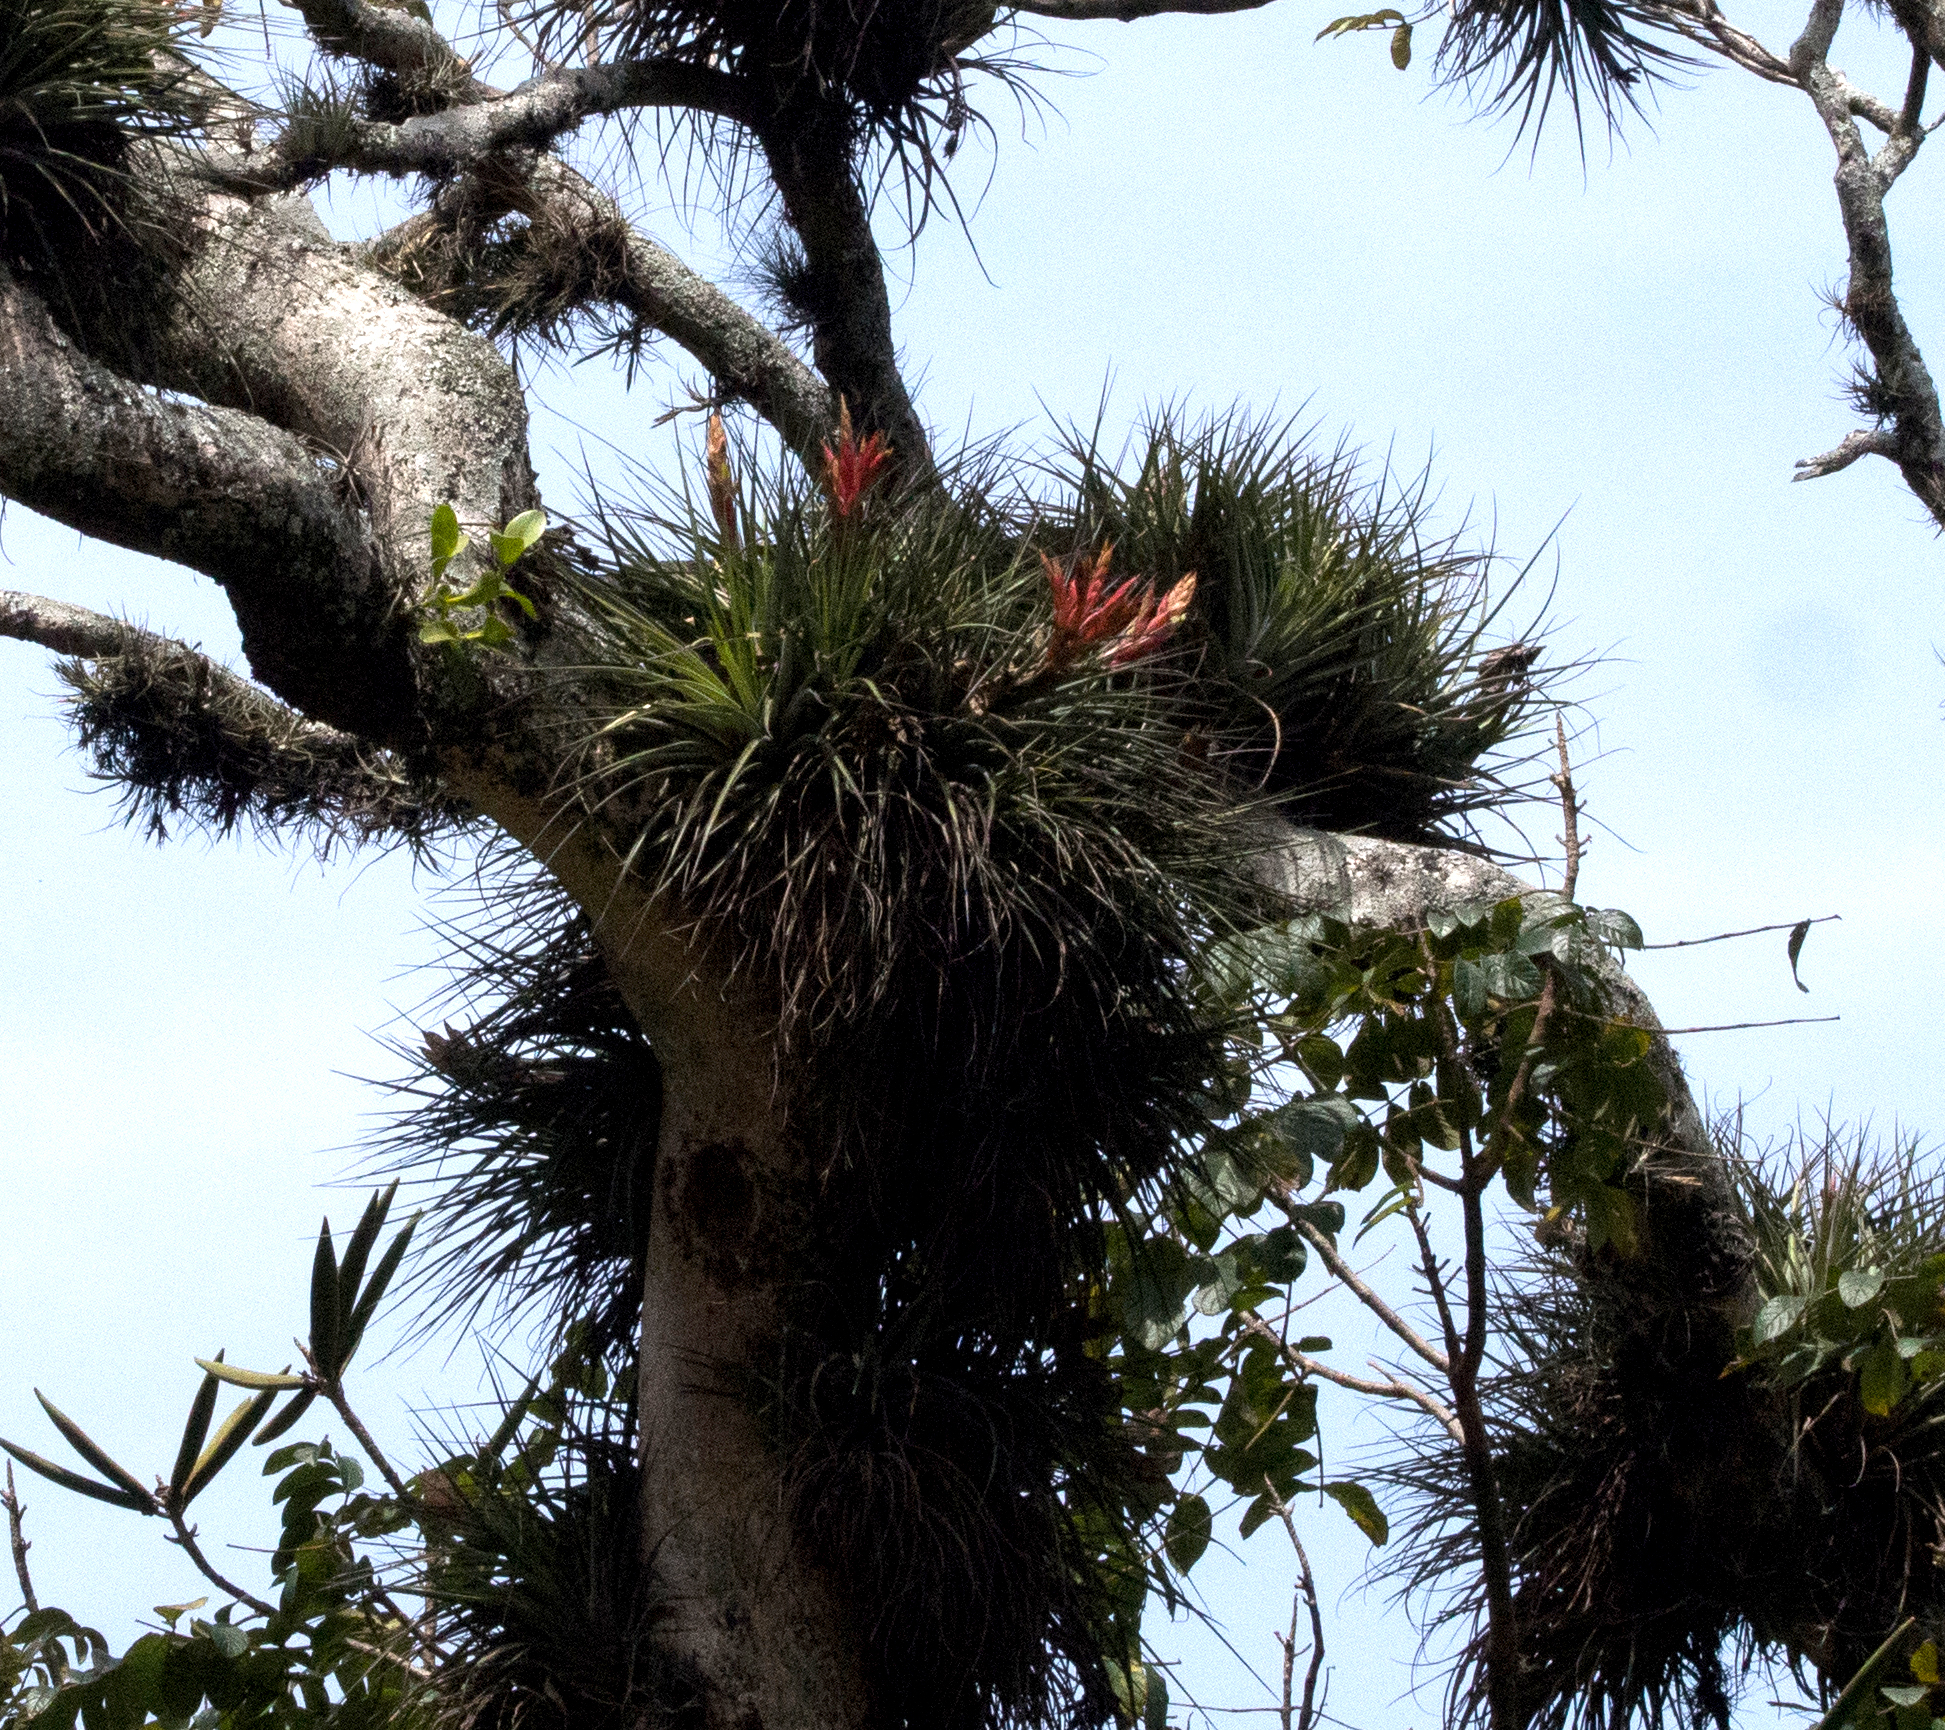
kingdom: Plantae
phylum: Tracheophyta
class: Liliopsida
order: Poales
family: Bromeliaceae
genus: Tillandsia
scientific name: Tillandsia fasciculata
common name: Giant airplant
